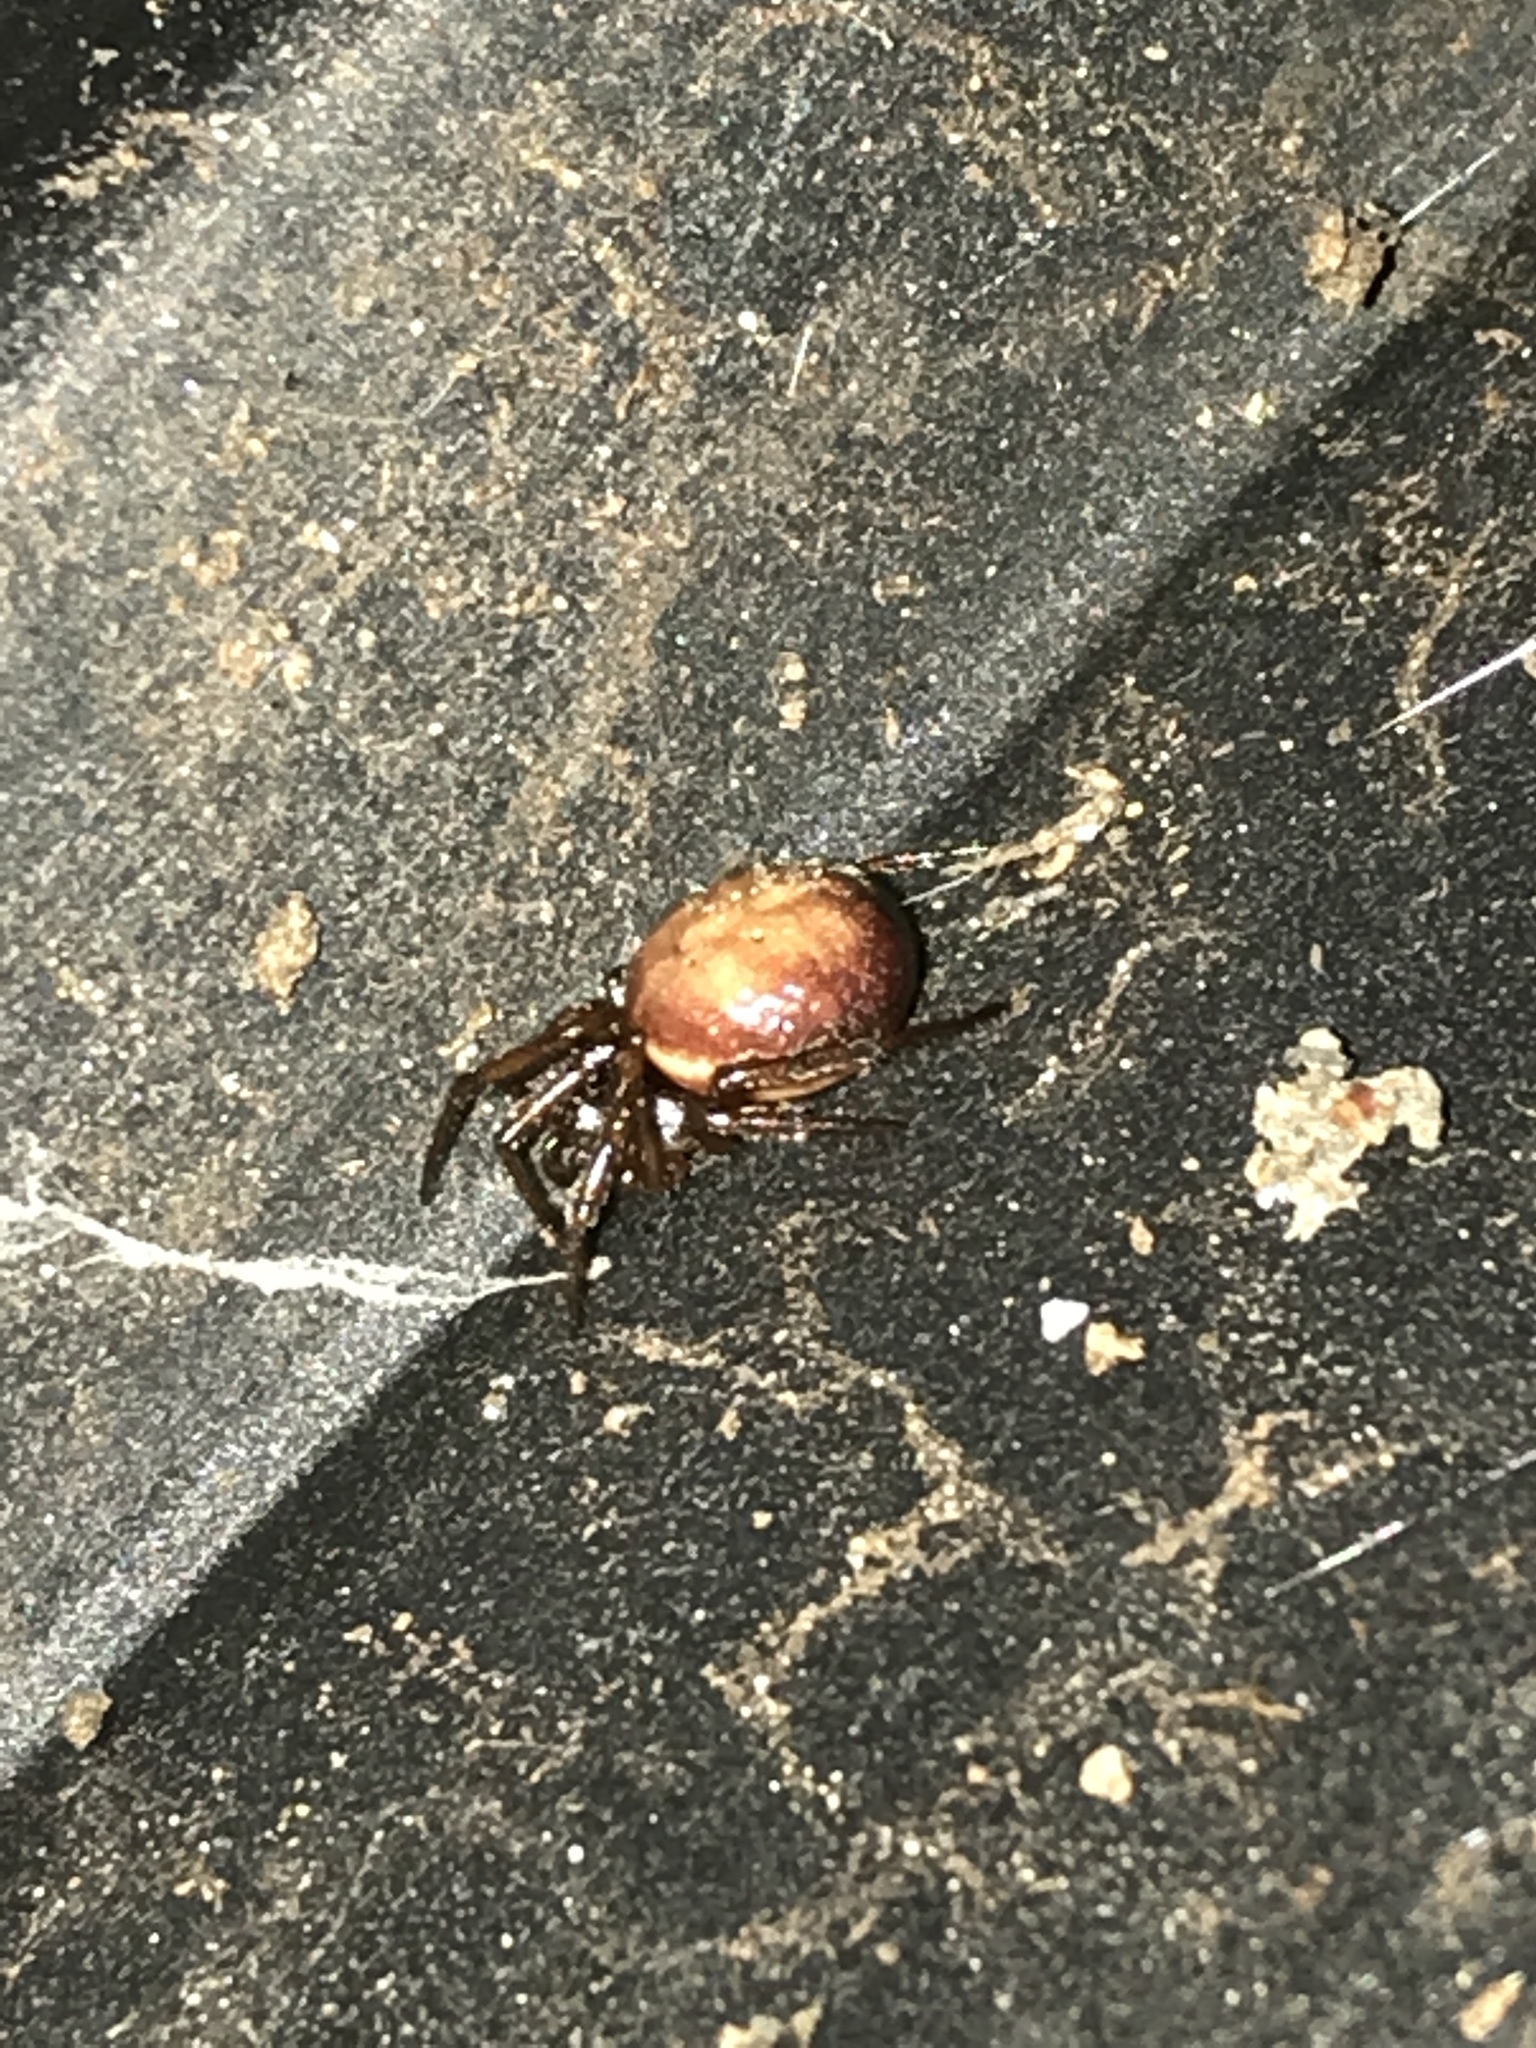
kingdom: Animalia
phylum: Arthropoda
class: Arachnida
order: Araneae
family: Theridiidae
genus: Steatoda
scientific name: Steatoda bipunctata
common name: False widow
